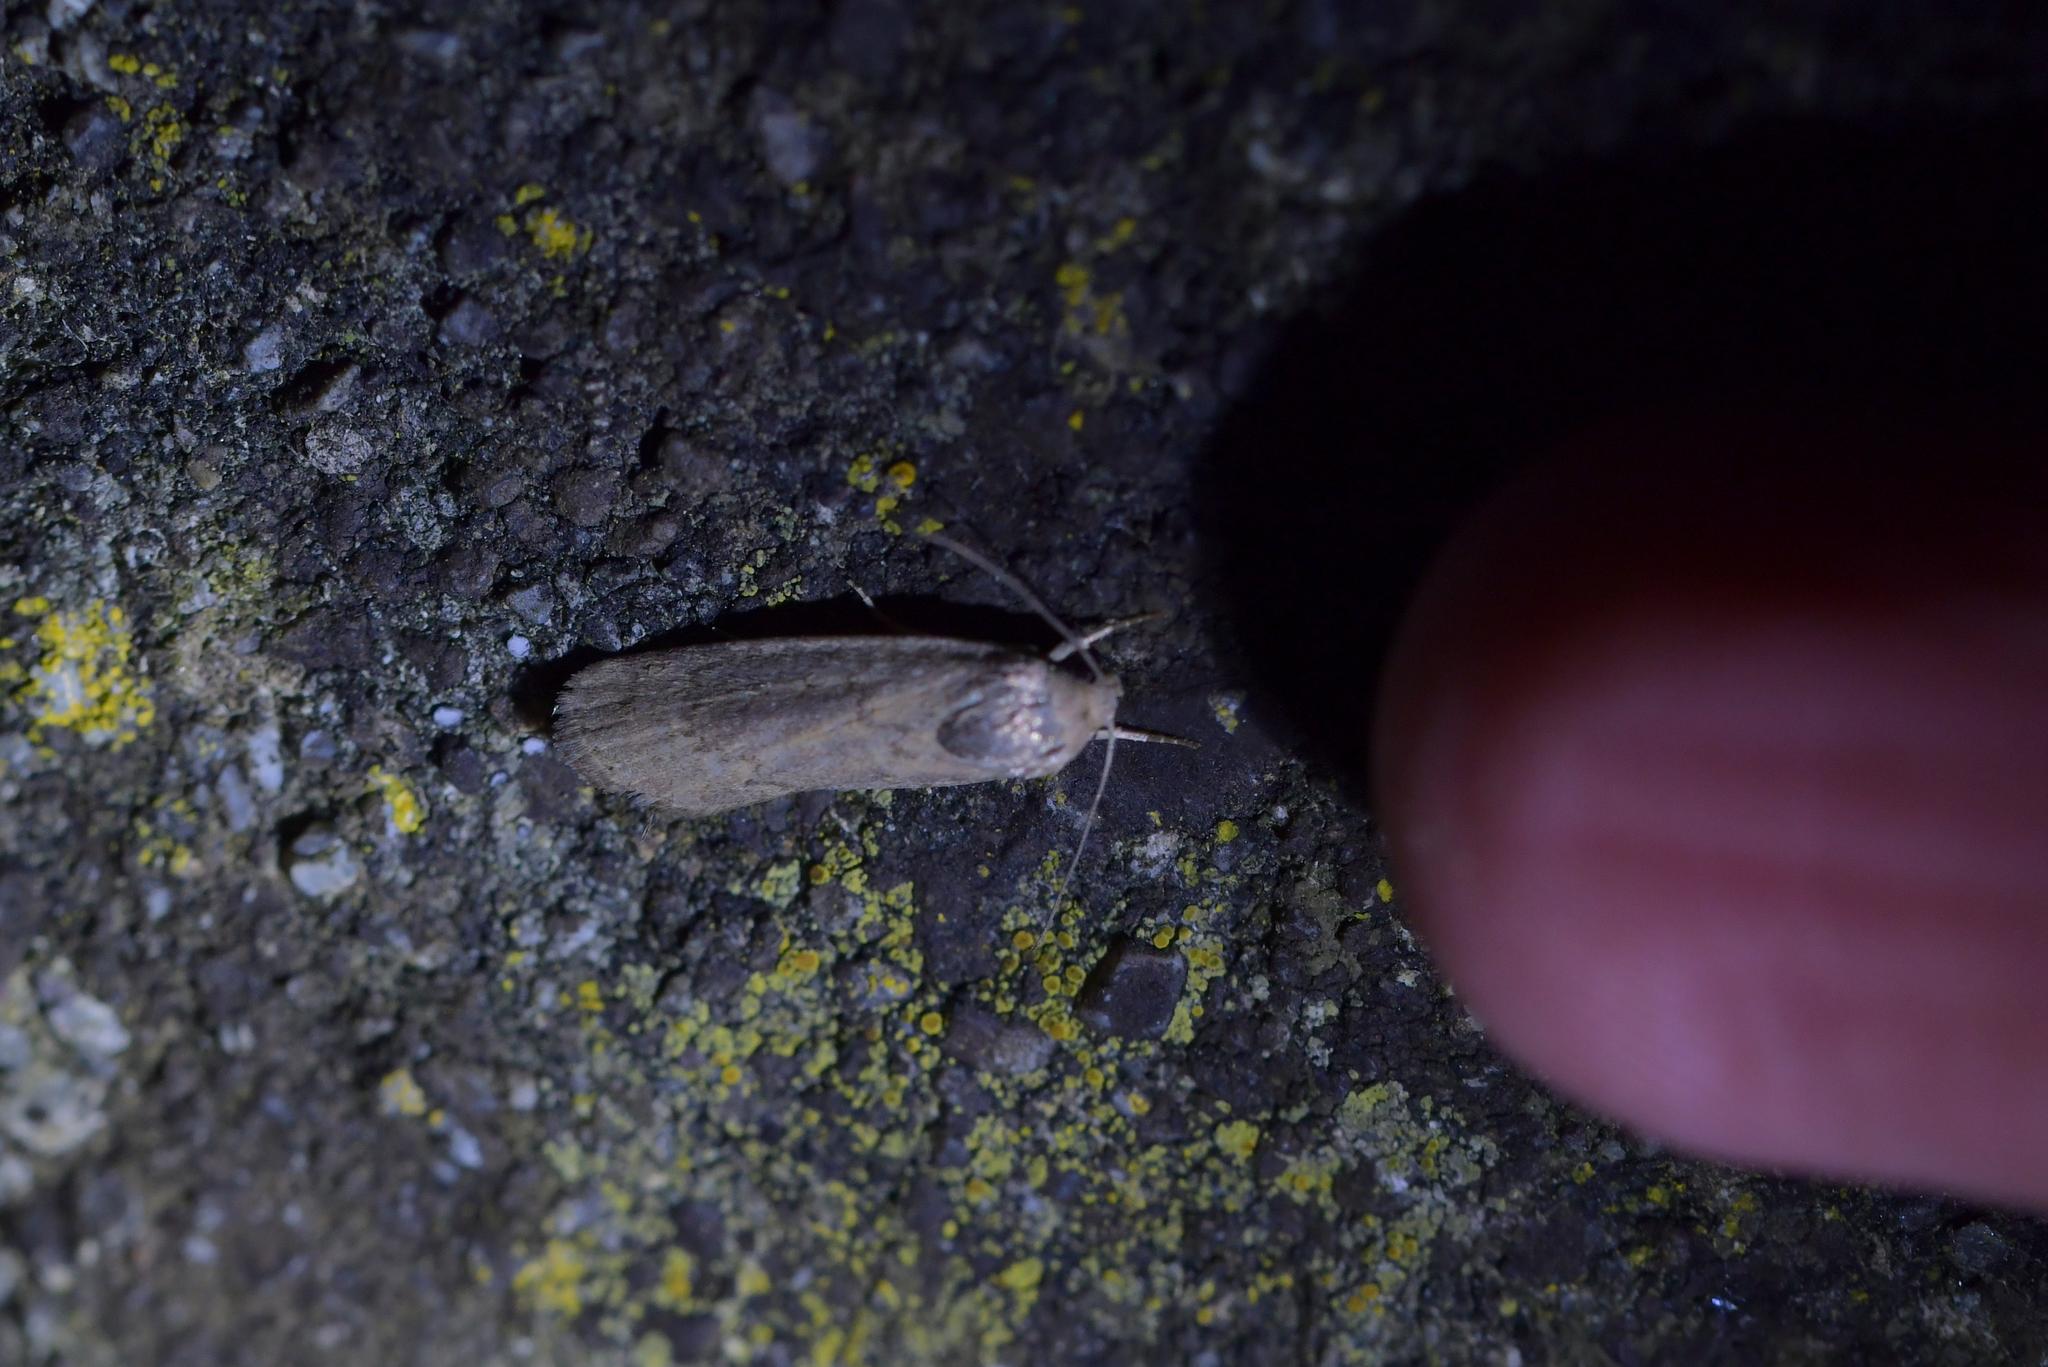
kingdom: Animalia
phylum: Arthropoda
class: Insecta
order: Lepidoptera
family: Noctuidae
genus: Athetis
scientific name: Athetis tenuis
